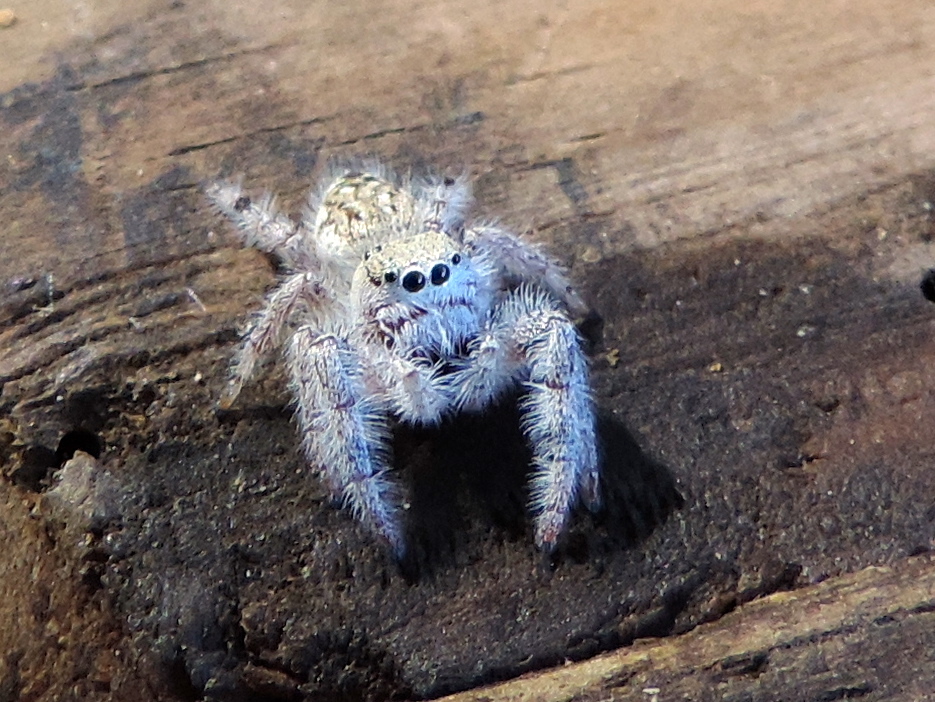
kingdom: Animalia
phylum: Arthropoda
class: Arachnida
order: Araneae
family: Salticidae
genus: Paraphidippus
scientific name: Paraphidippus fartilis
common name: Jumping spiders
